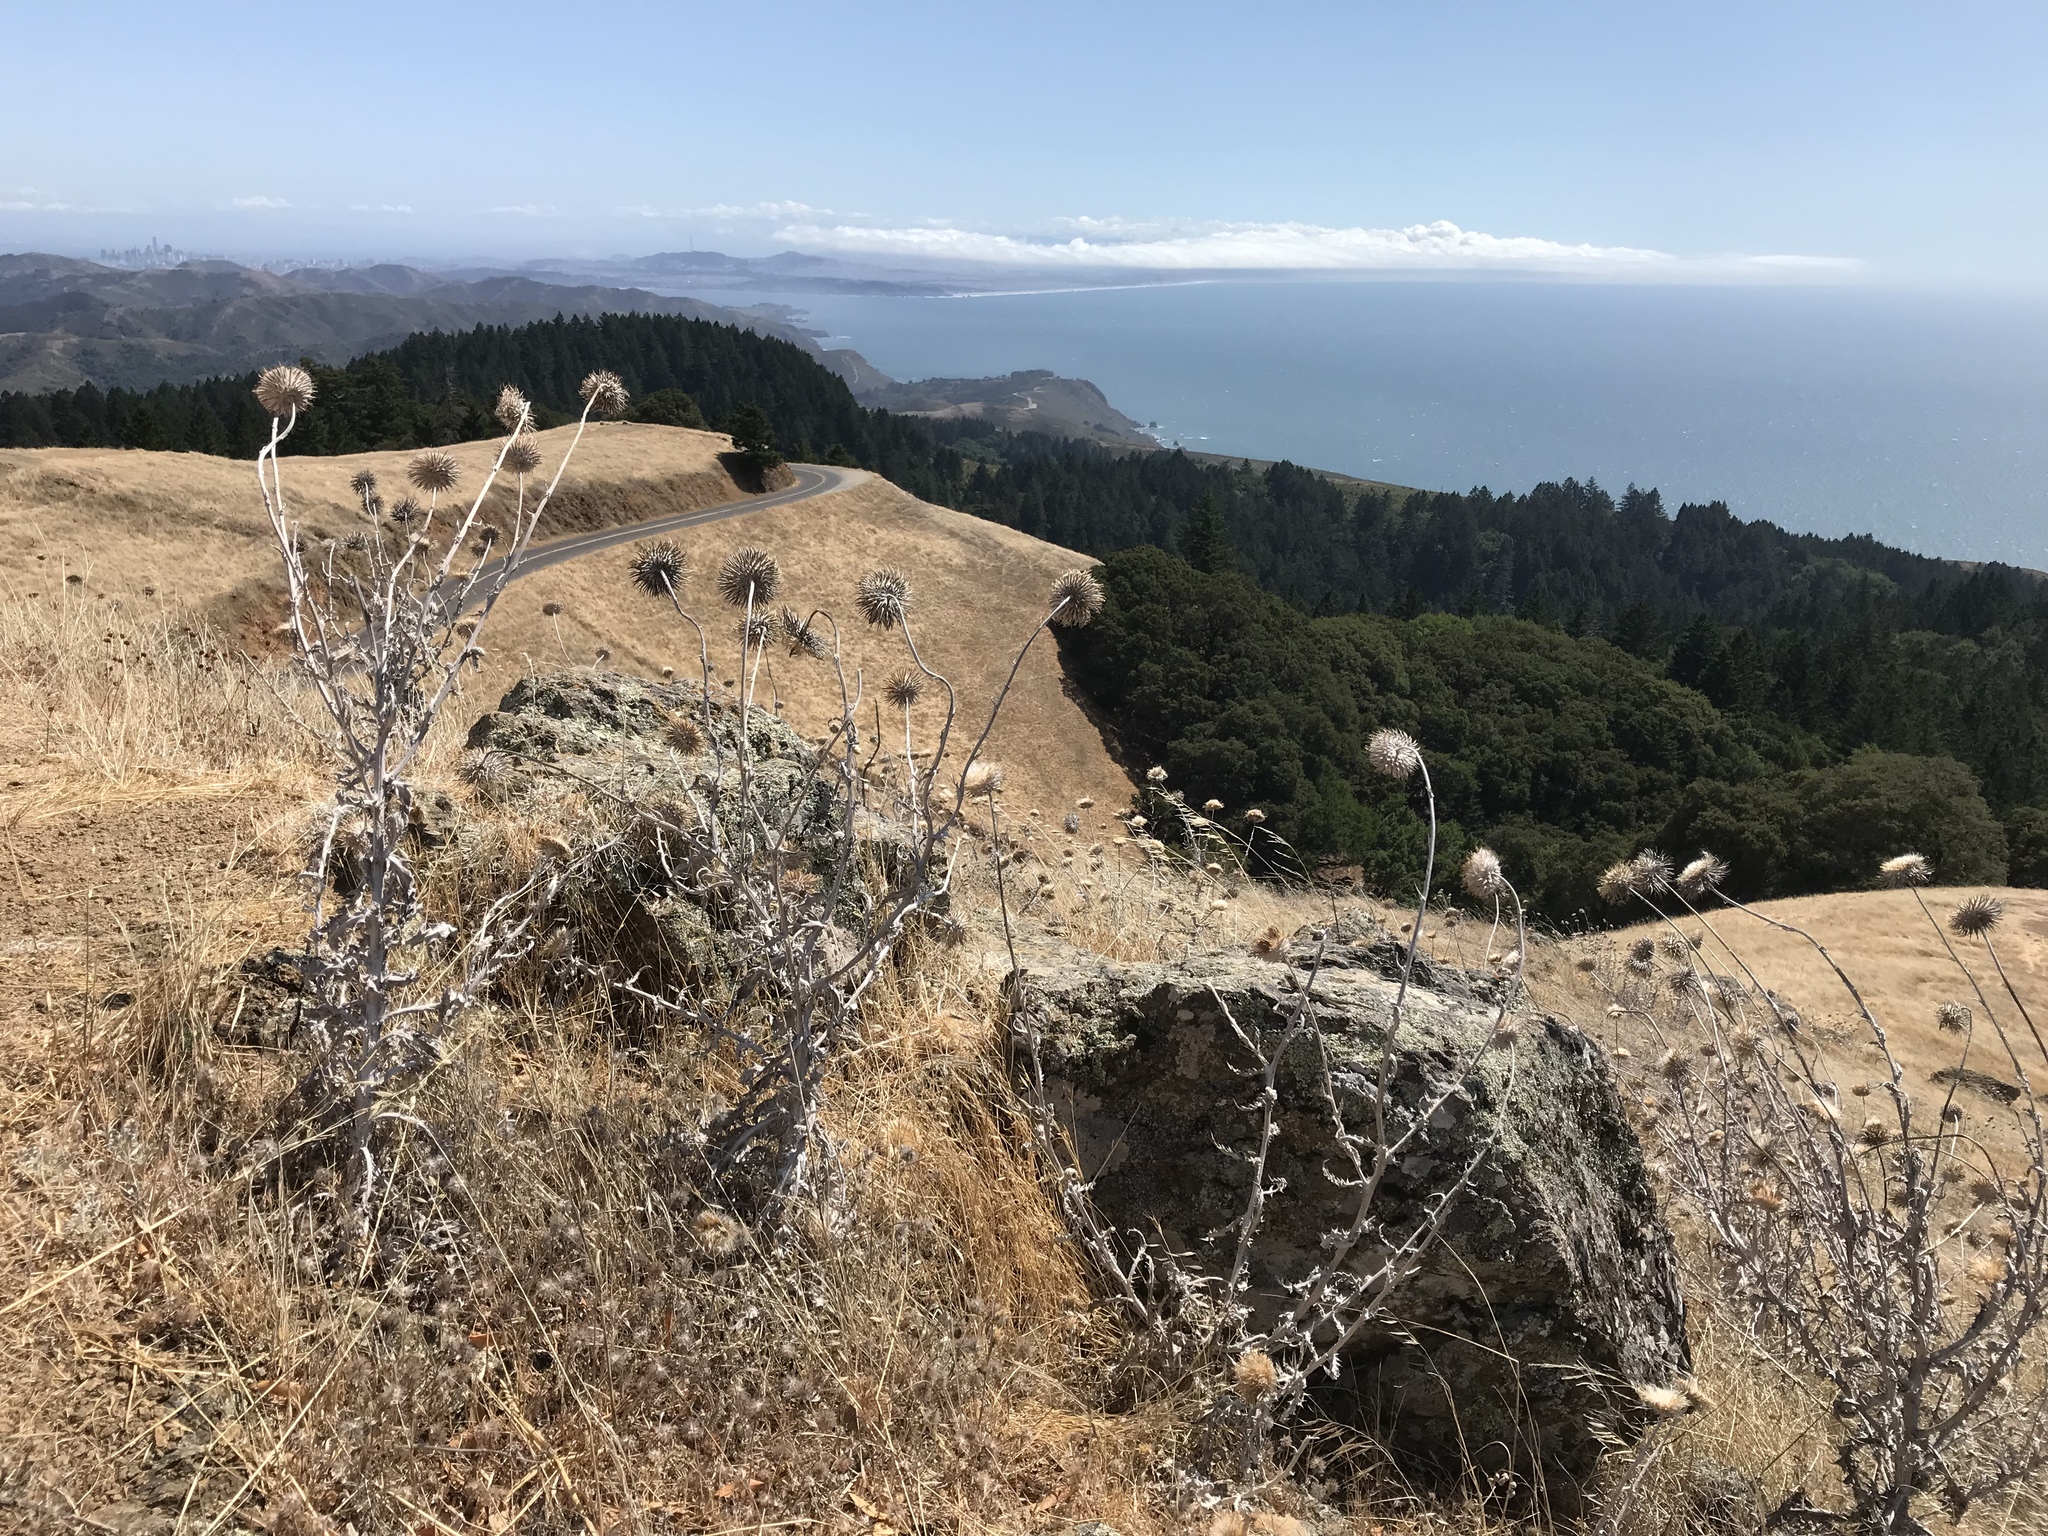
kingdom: Plantae
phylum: Tracheophyta
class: Magnoliopsida
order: Asterales
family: Asteraceae
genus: Cirsium
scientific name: Cirsium occidentale
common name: Western thistle
